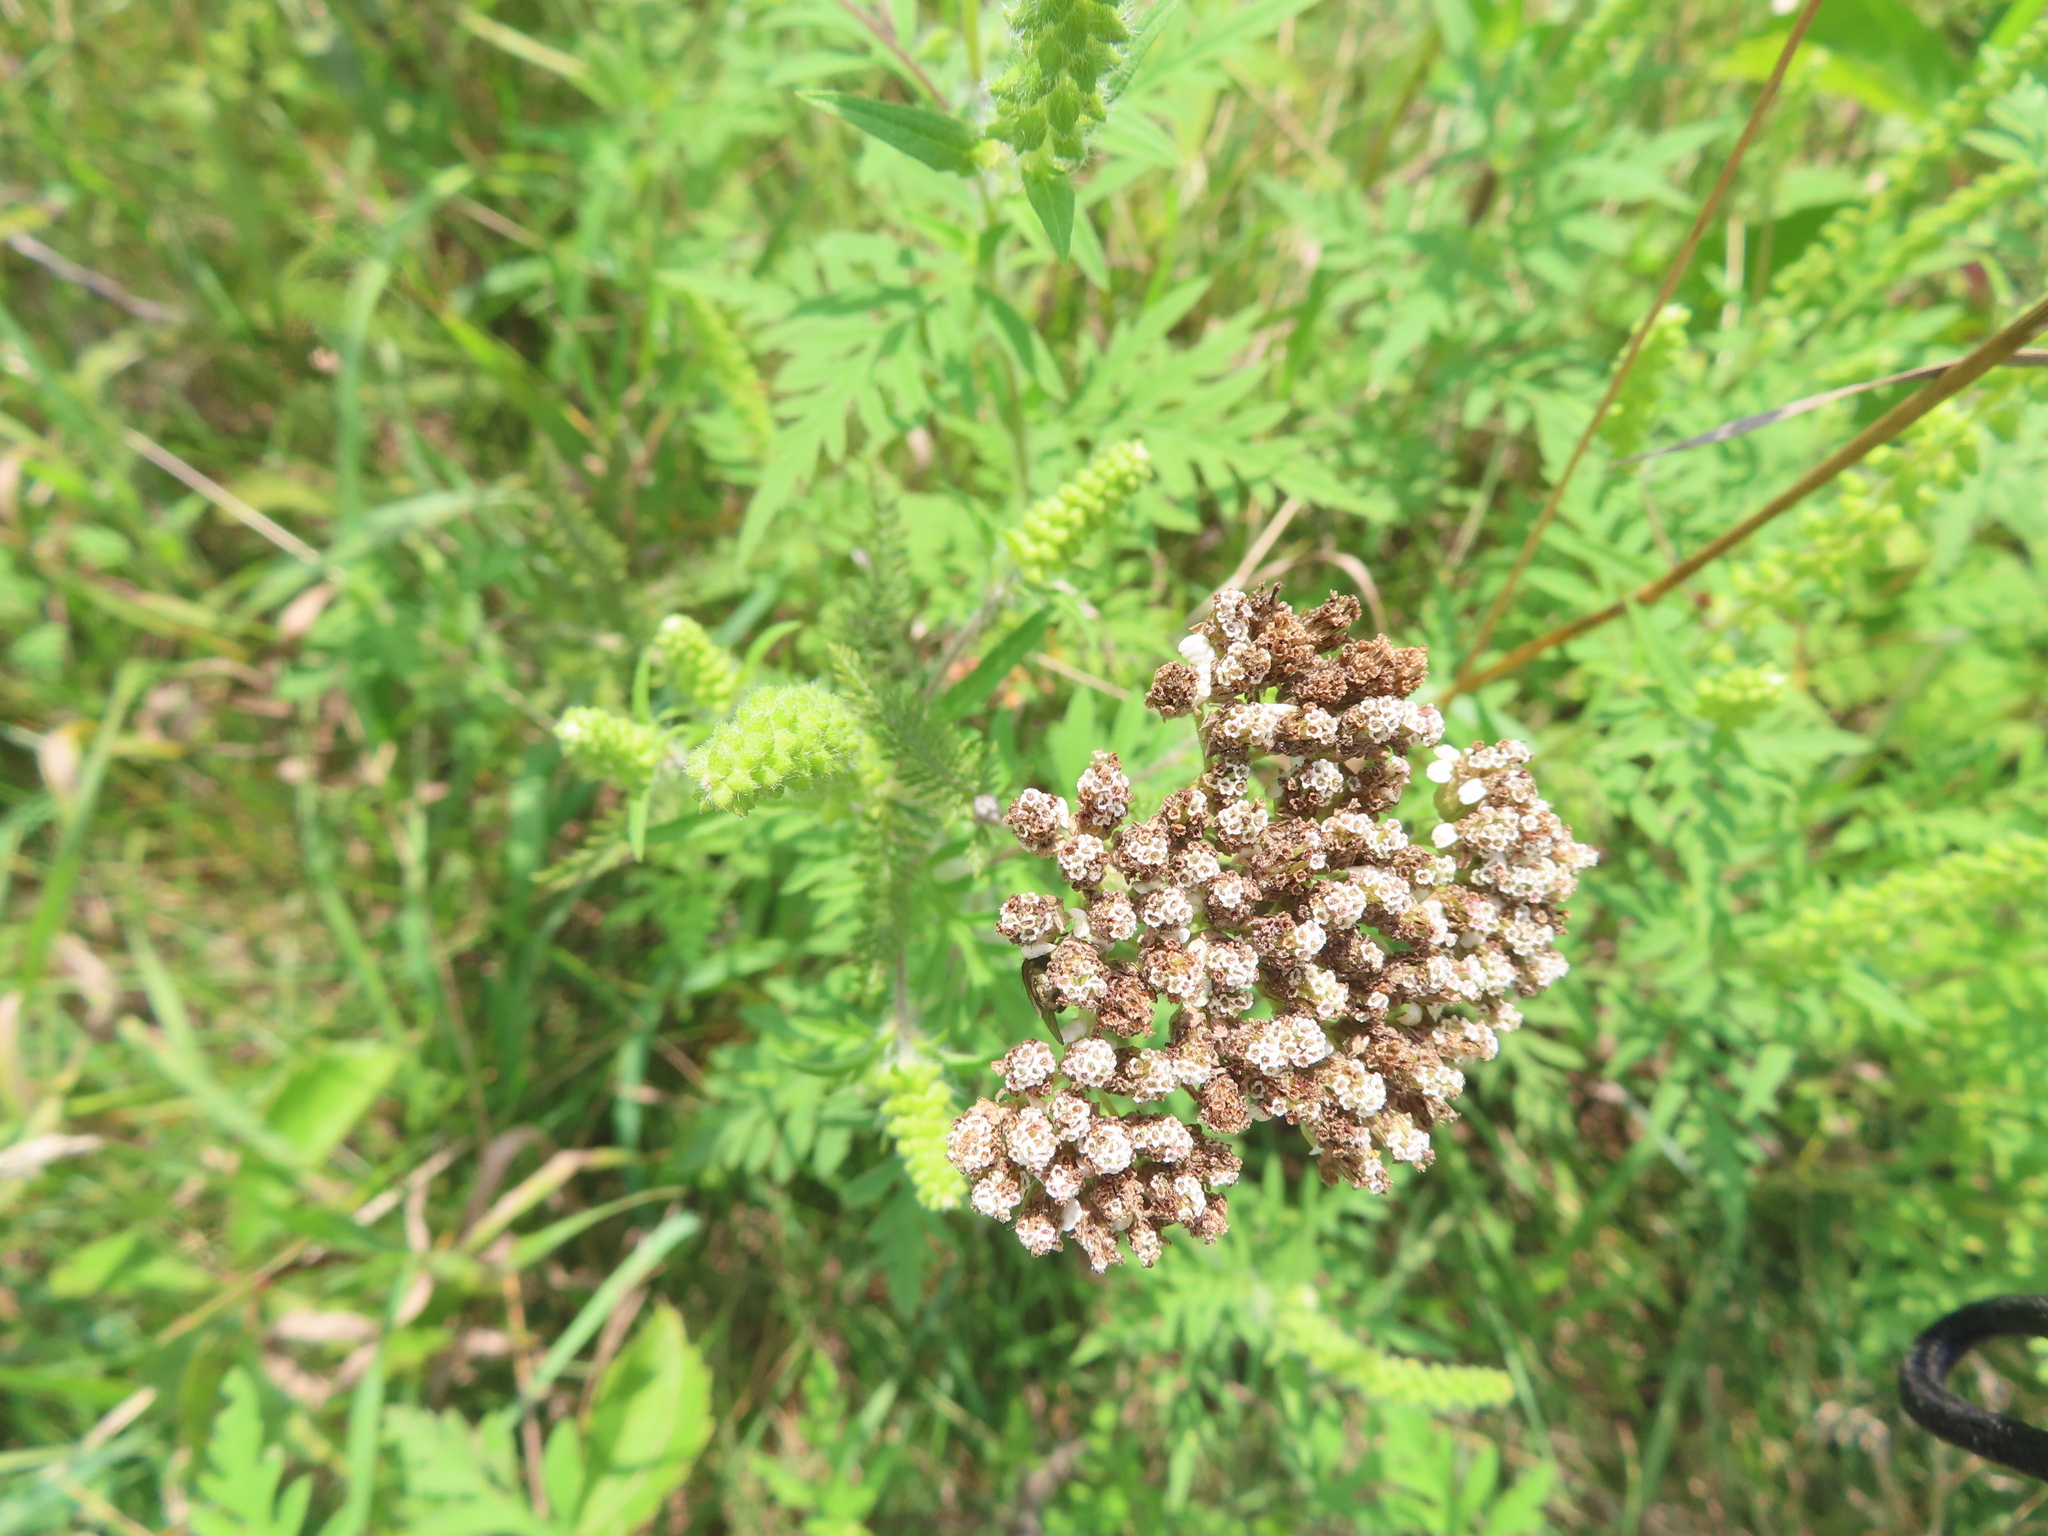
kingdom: Plantae
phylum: Tracheophyta
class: Magnoliopsida
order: Asterales
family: Asteraceae
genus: Achillea
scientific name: Achillea millefolium
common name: Yarrow
